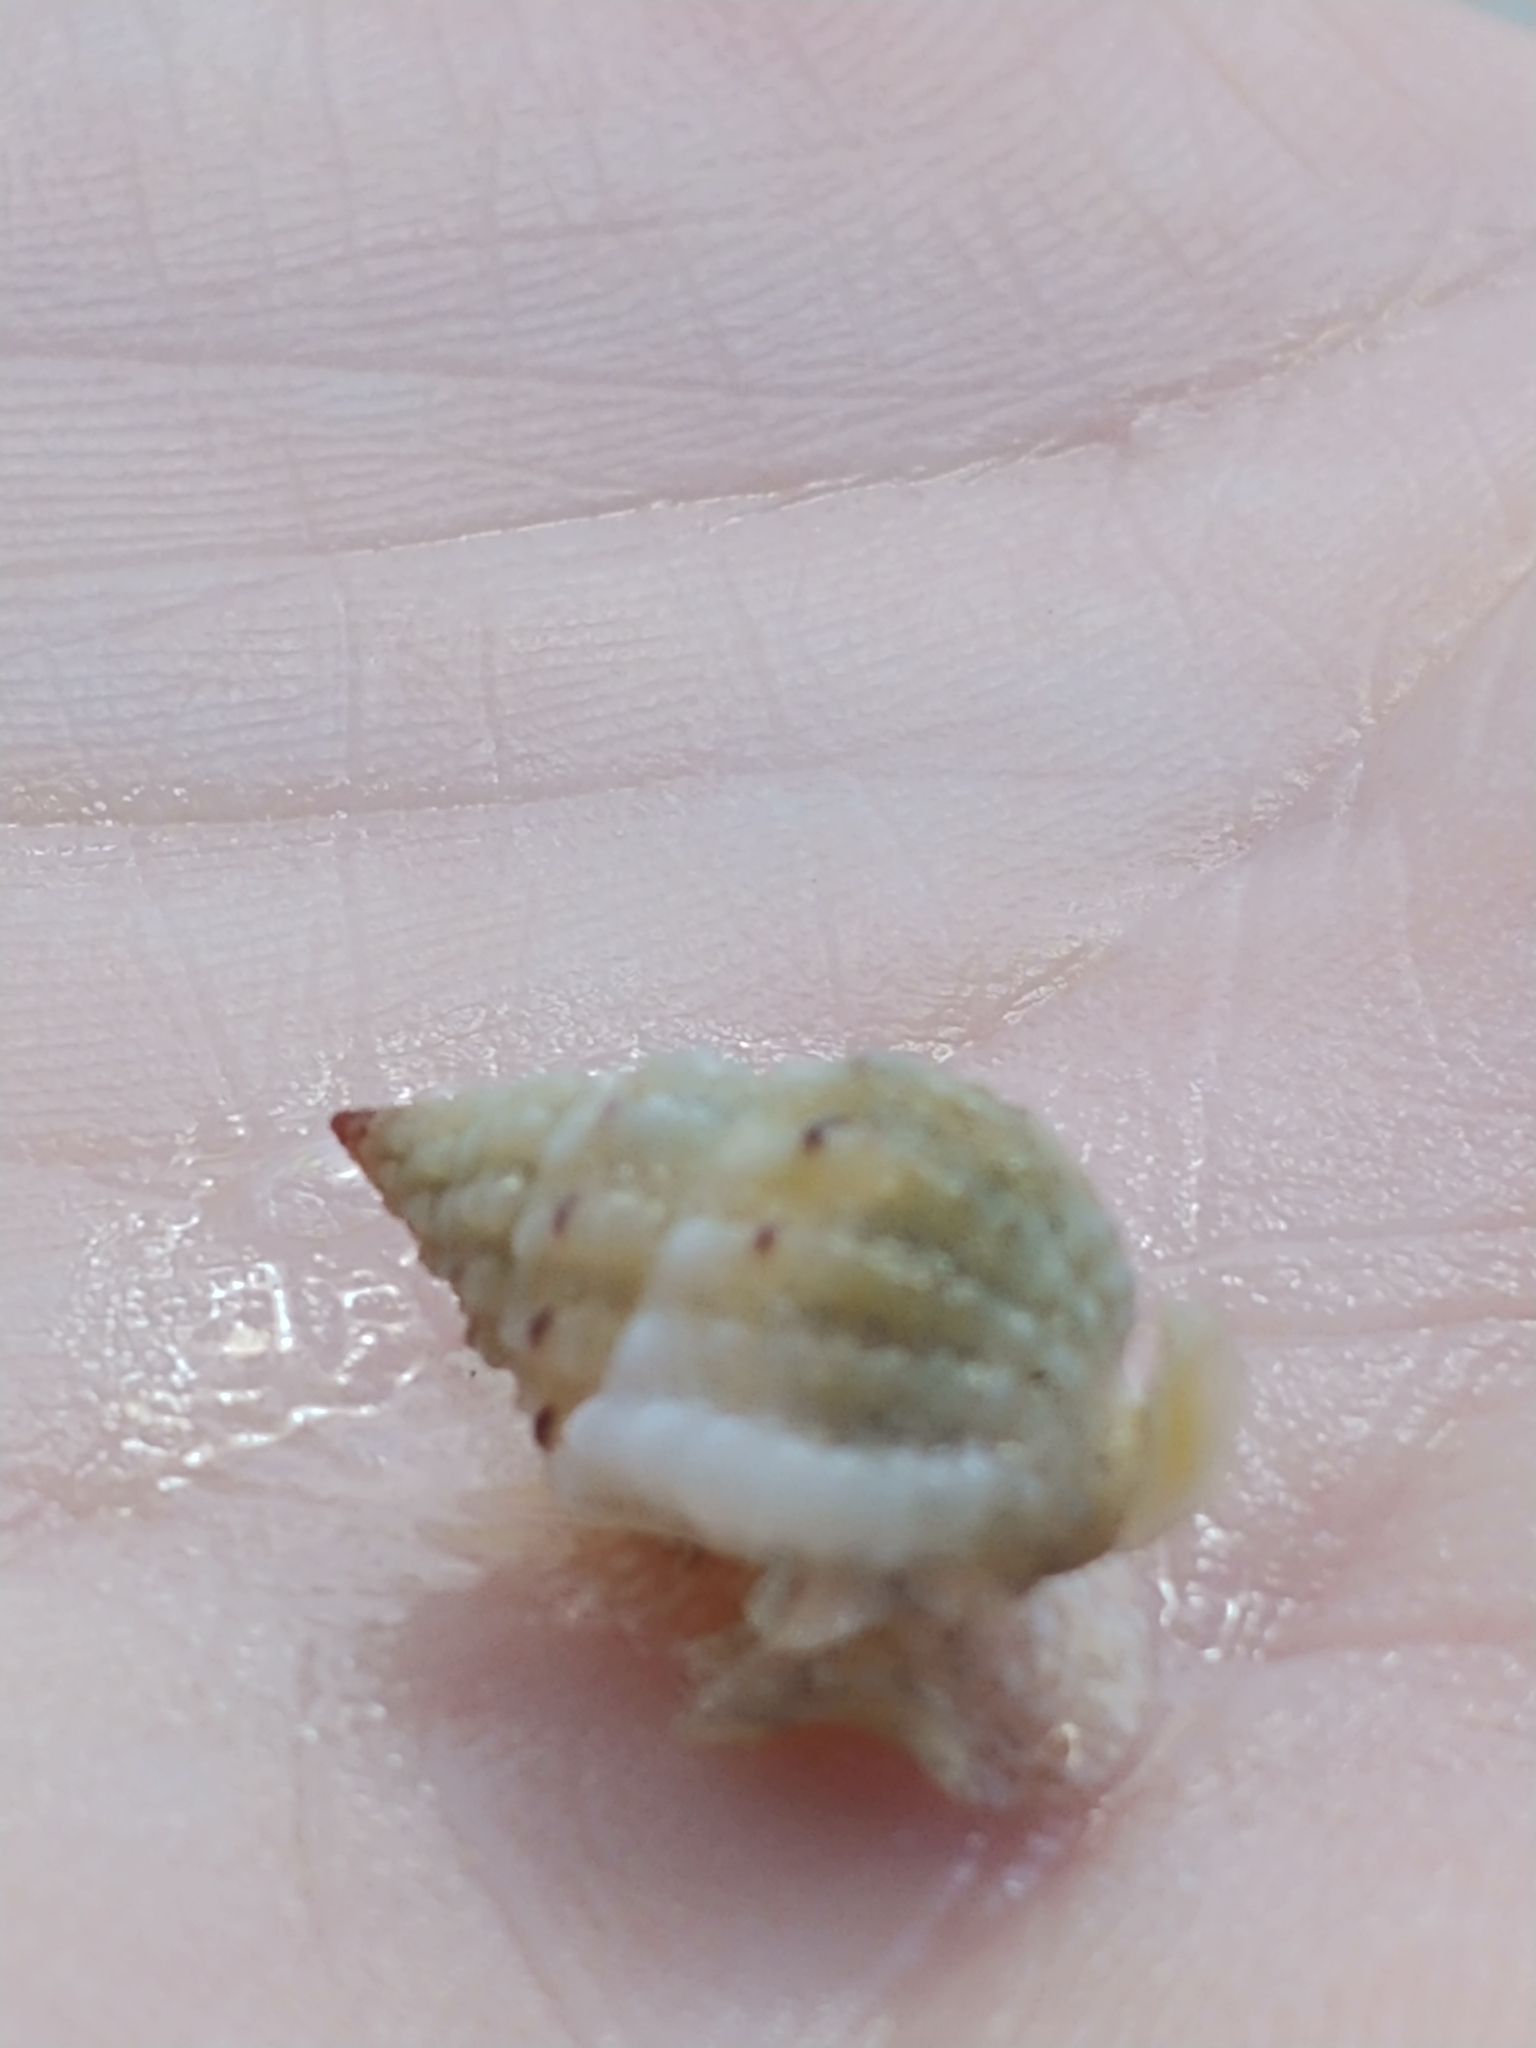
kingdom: Animalia
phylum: Mollusca
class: Gastropoda
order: Neogastropoda
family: Nassariidae
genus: Phrontis
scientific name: Phrontis vibex
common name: Bruised nassa
